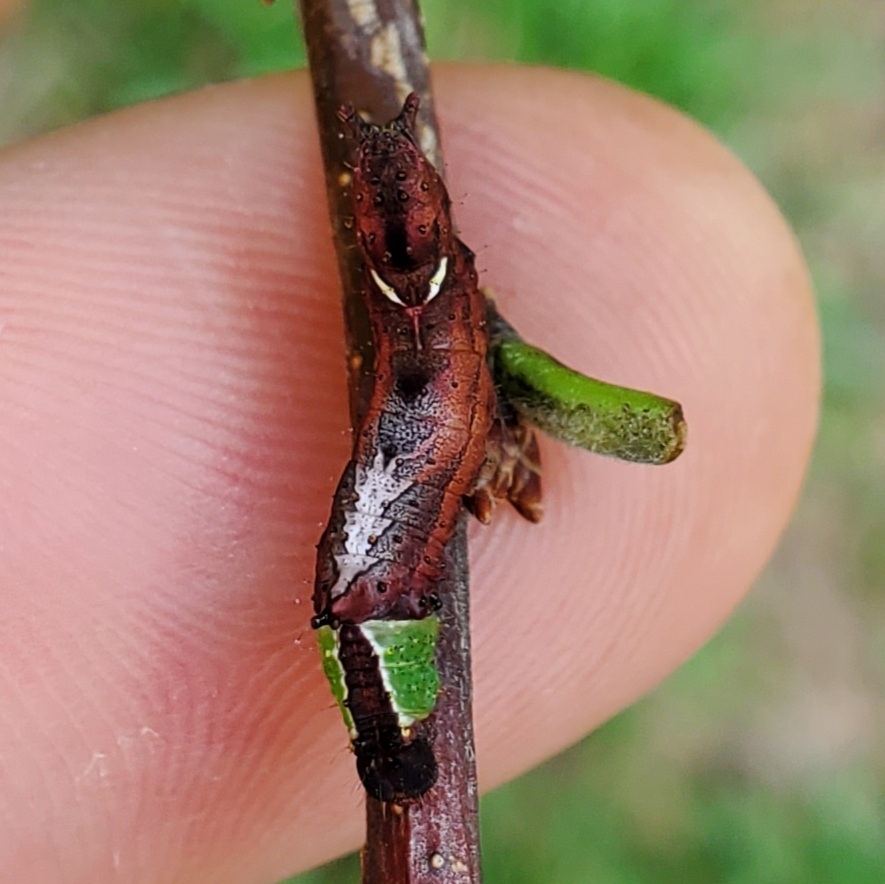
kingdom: Animalia
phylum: Arthropoda
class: Insecta
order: Lepidoptera
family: Notodontidae
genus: Schizura
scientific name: Schizura
